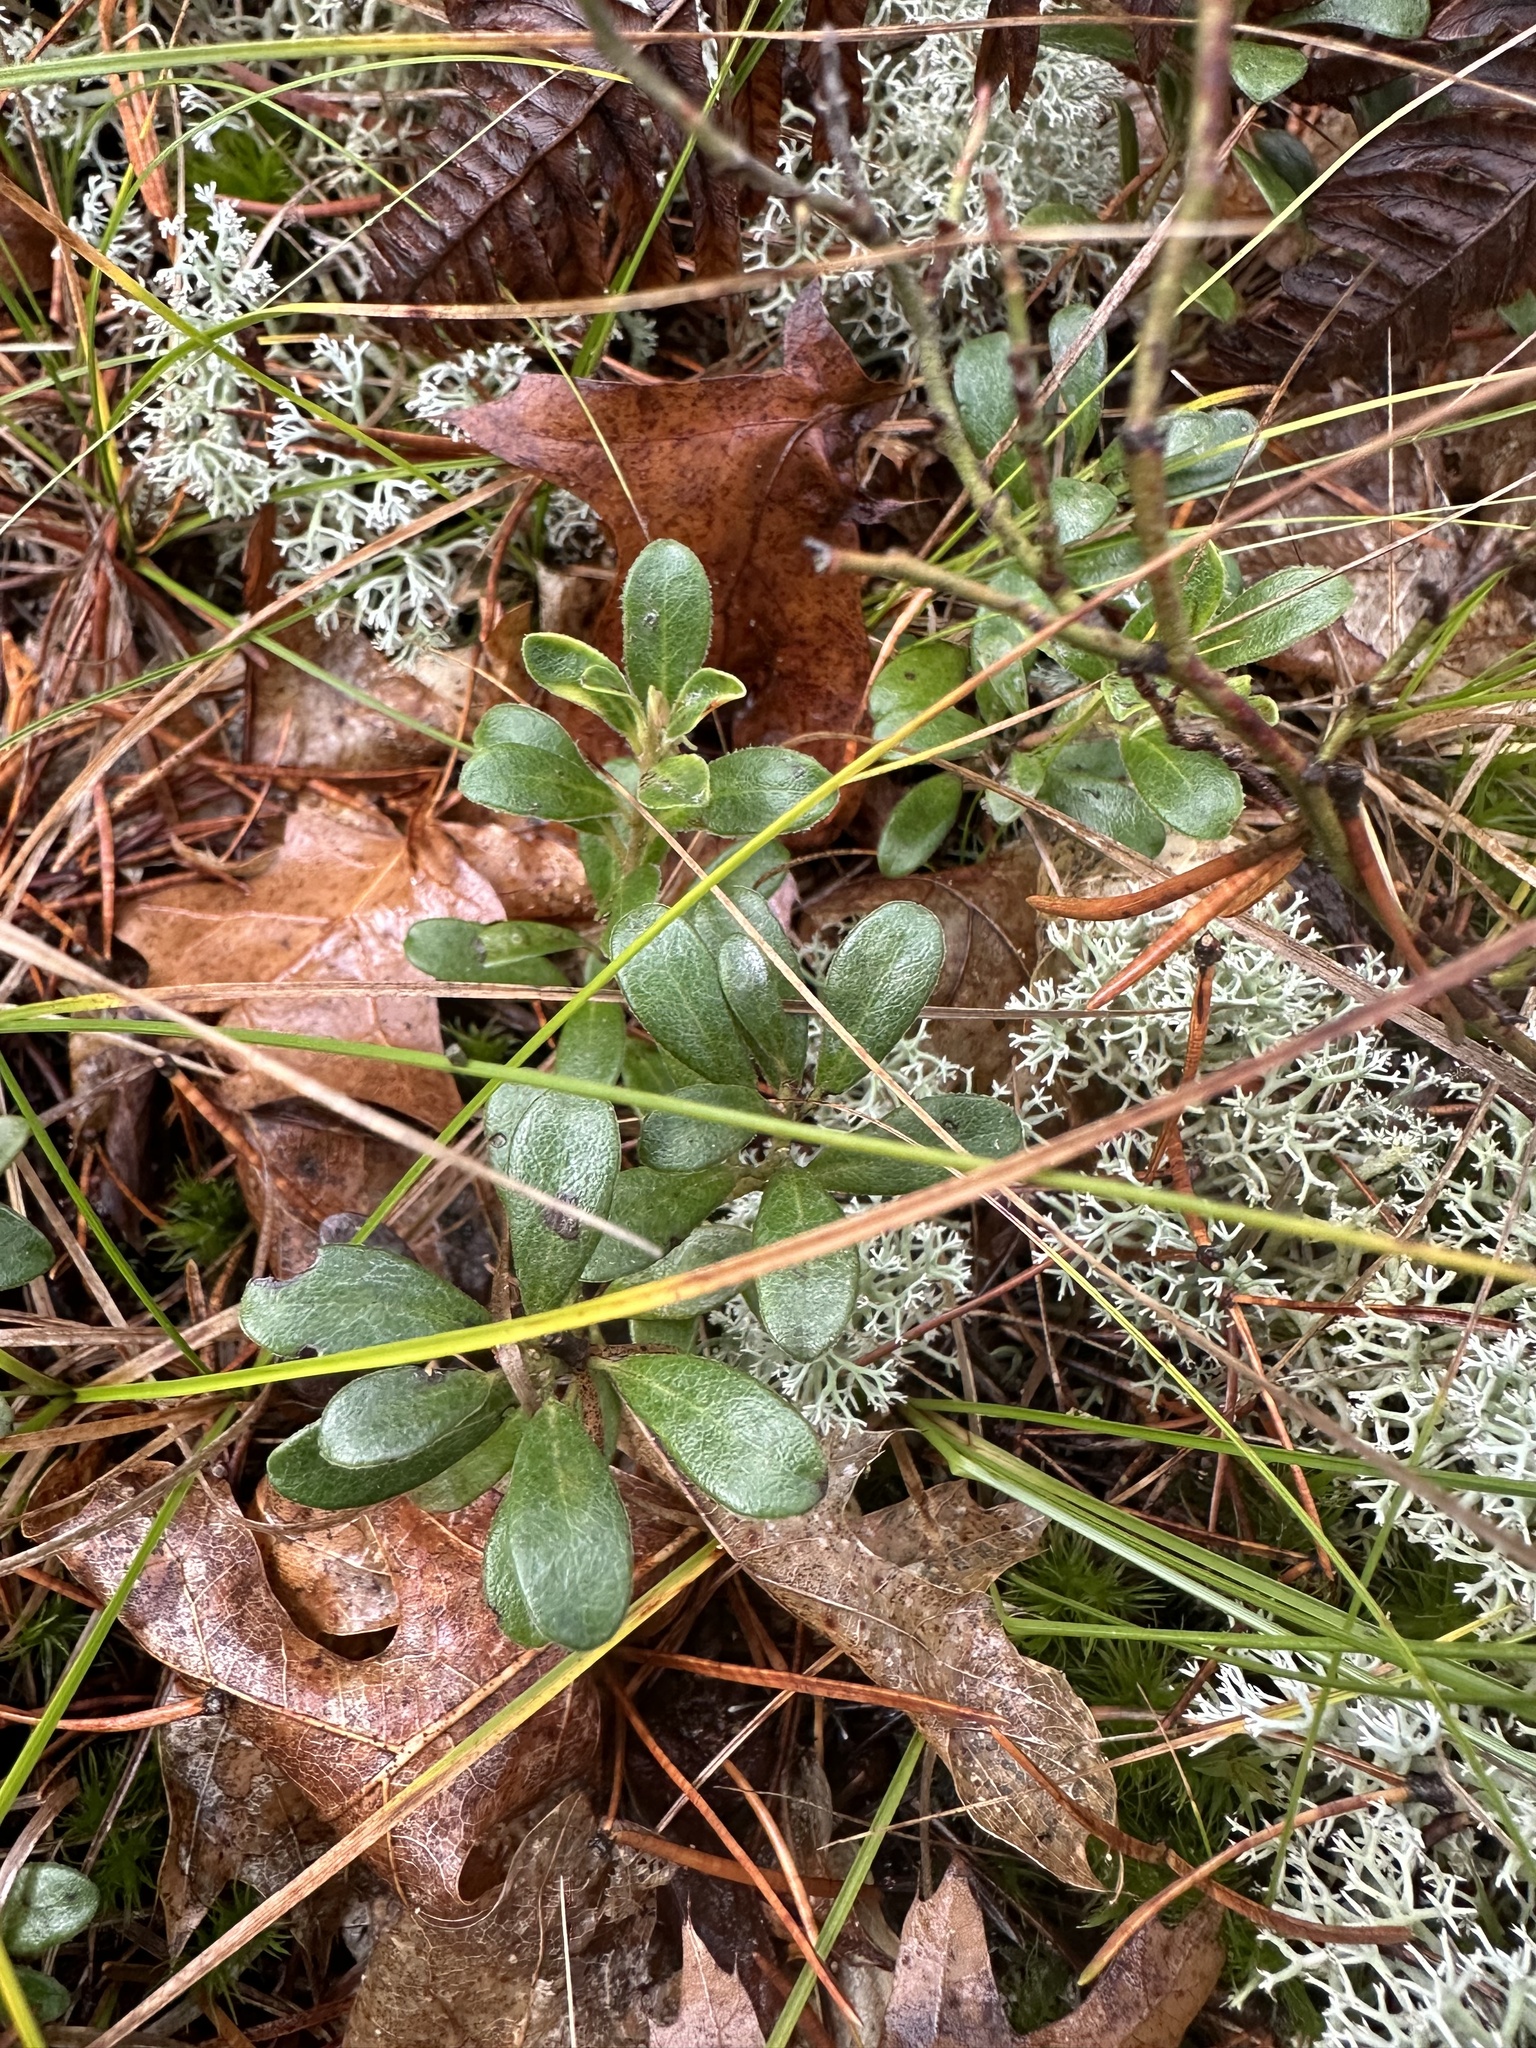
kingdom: Plantae
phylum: Tracheophyta
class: Magnoliopsida
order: Ericales
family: Ericaceae
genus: Arctostaphylos
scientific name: Arctostaphylos uva-ursi
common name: Bearberry
